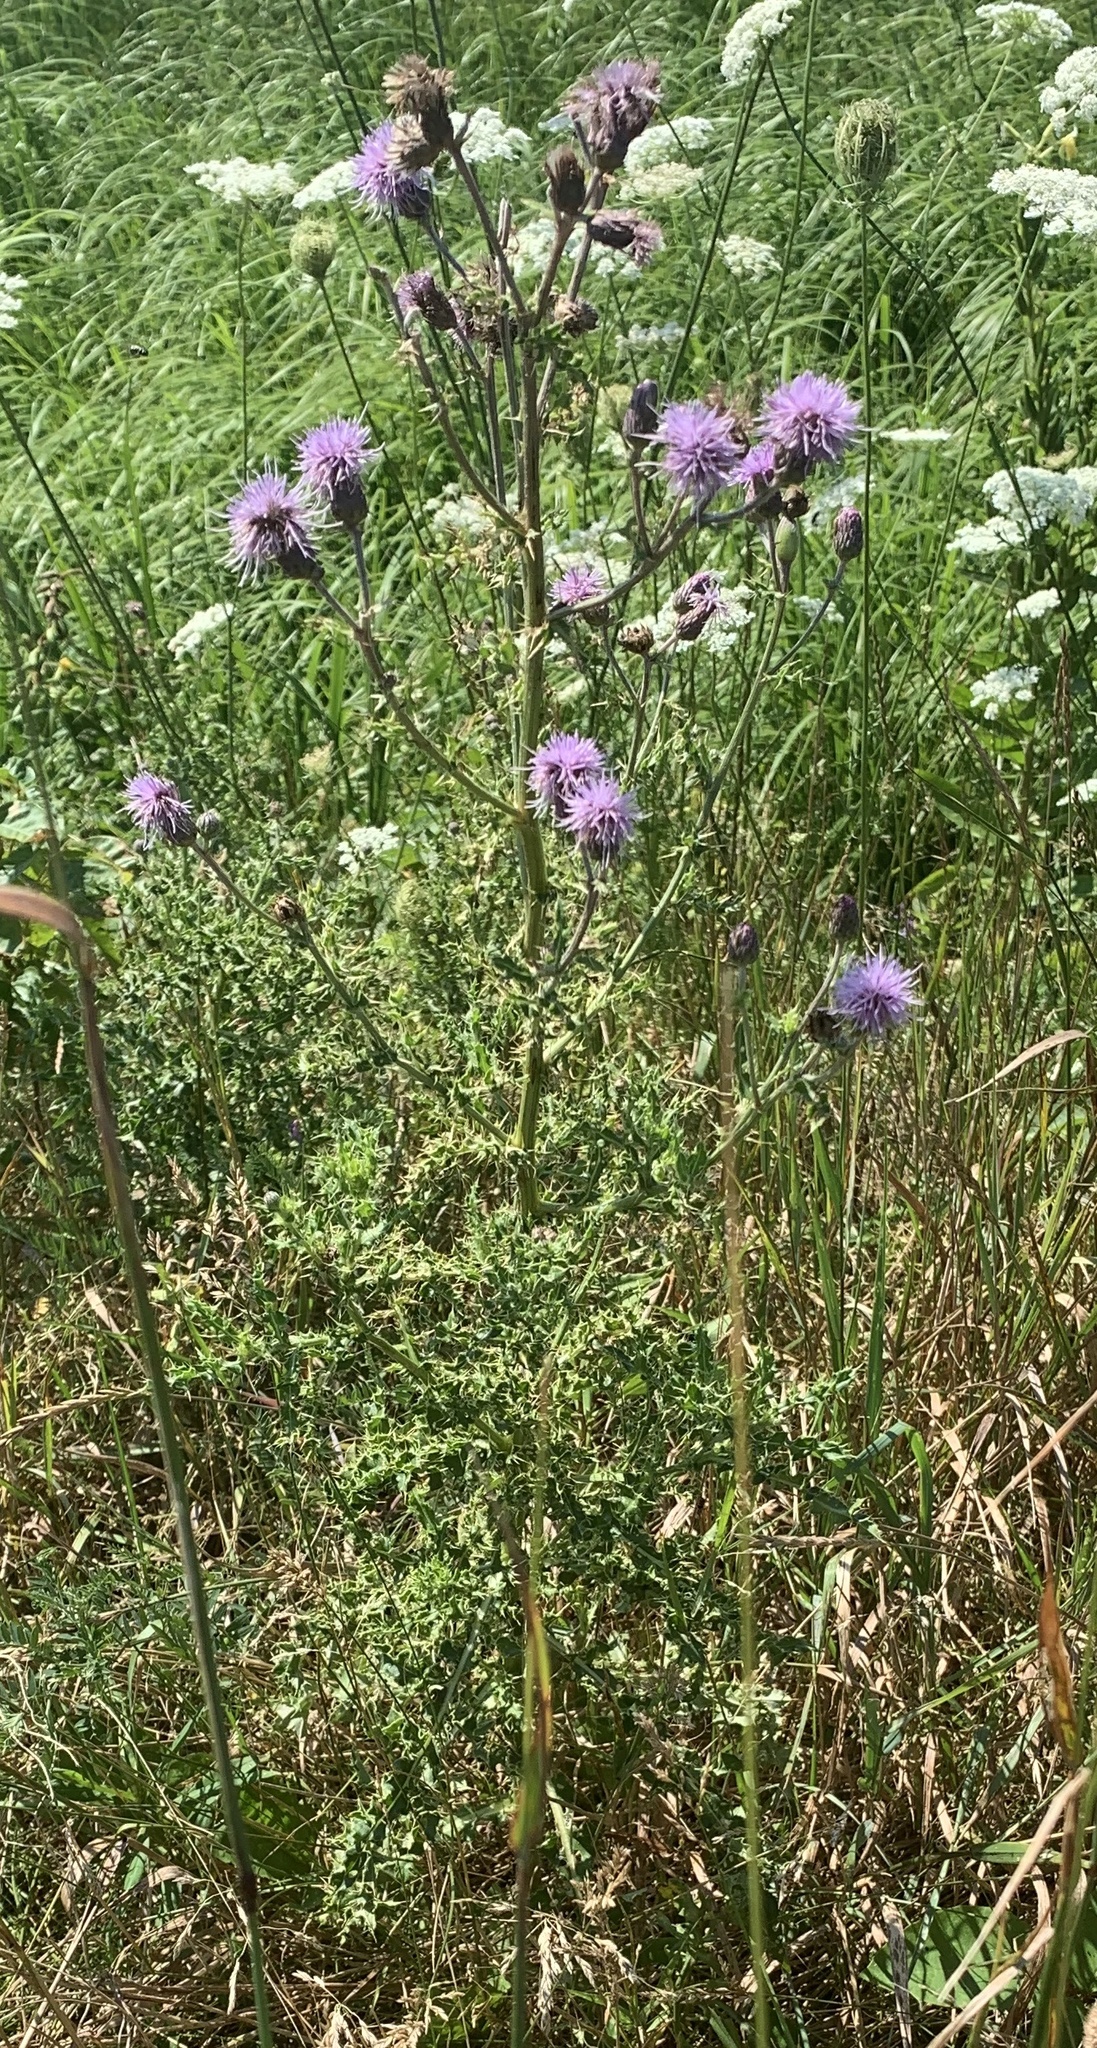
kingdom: Plantae
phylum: Tracheophyta
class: Magnoliopsida
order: Asterales
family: Asteraceae
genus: Cirsium
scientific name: Cirsium arvense
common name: Creeping thistle
